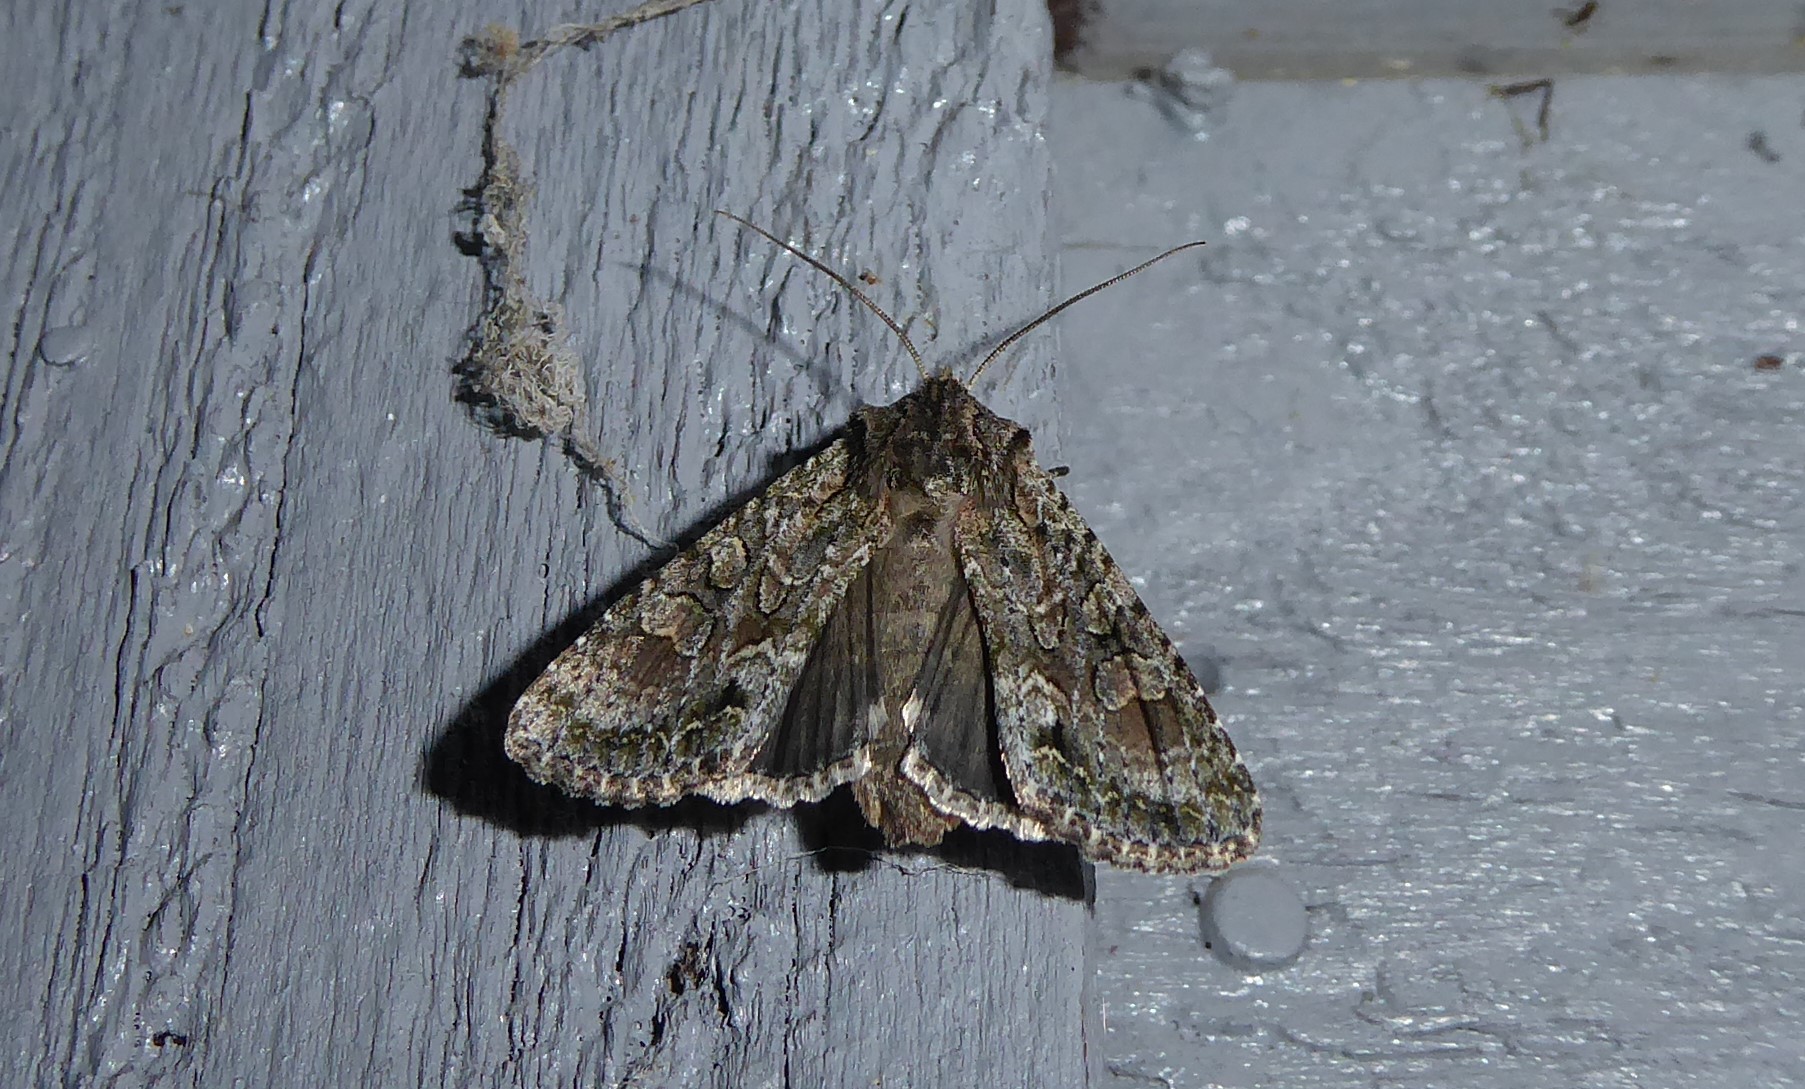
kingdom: Animalia
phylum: Arthropoda
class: Insecta
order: Lepidoptera
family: Noctuidae
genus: Ichneutica
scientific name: Ichneutica mutans
